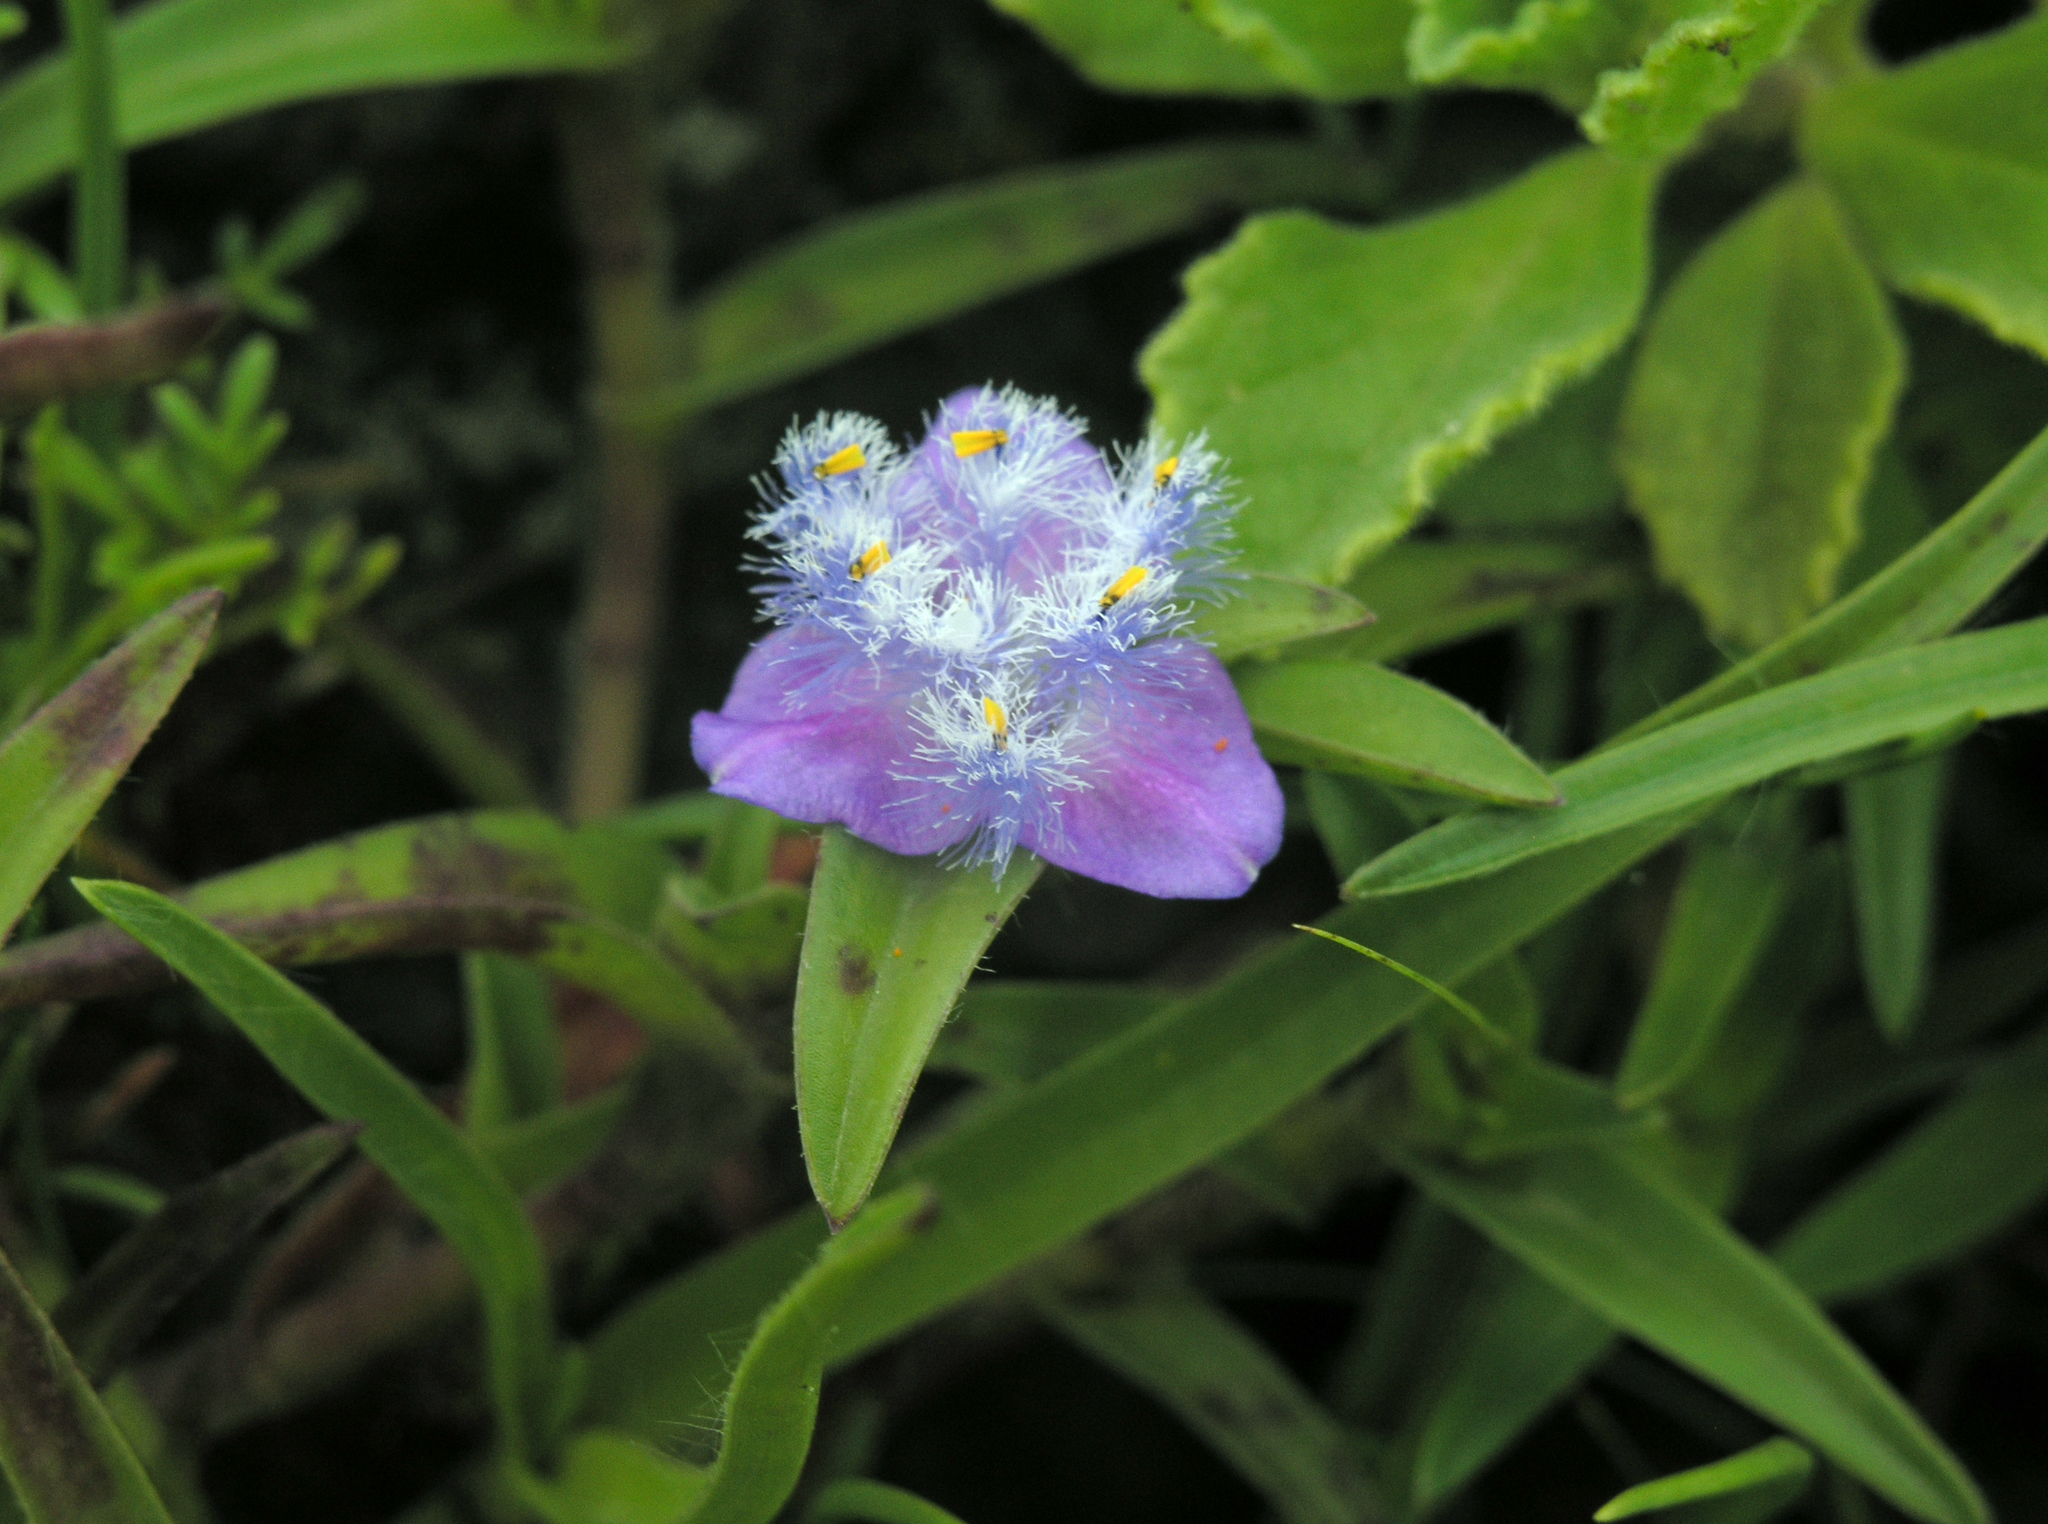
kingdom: Plantae
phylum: Tracheophyta
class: Liliopsida
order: Commelinales
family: Commelinaceae
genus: Cyanotis
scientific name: Cyanotis vaga
